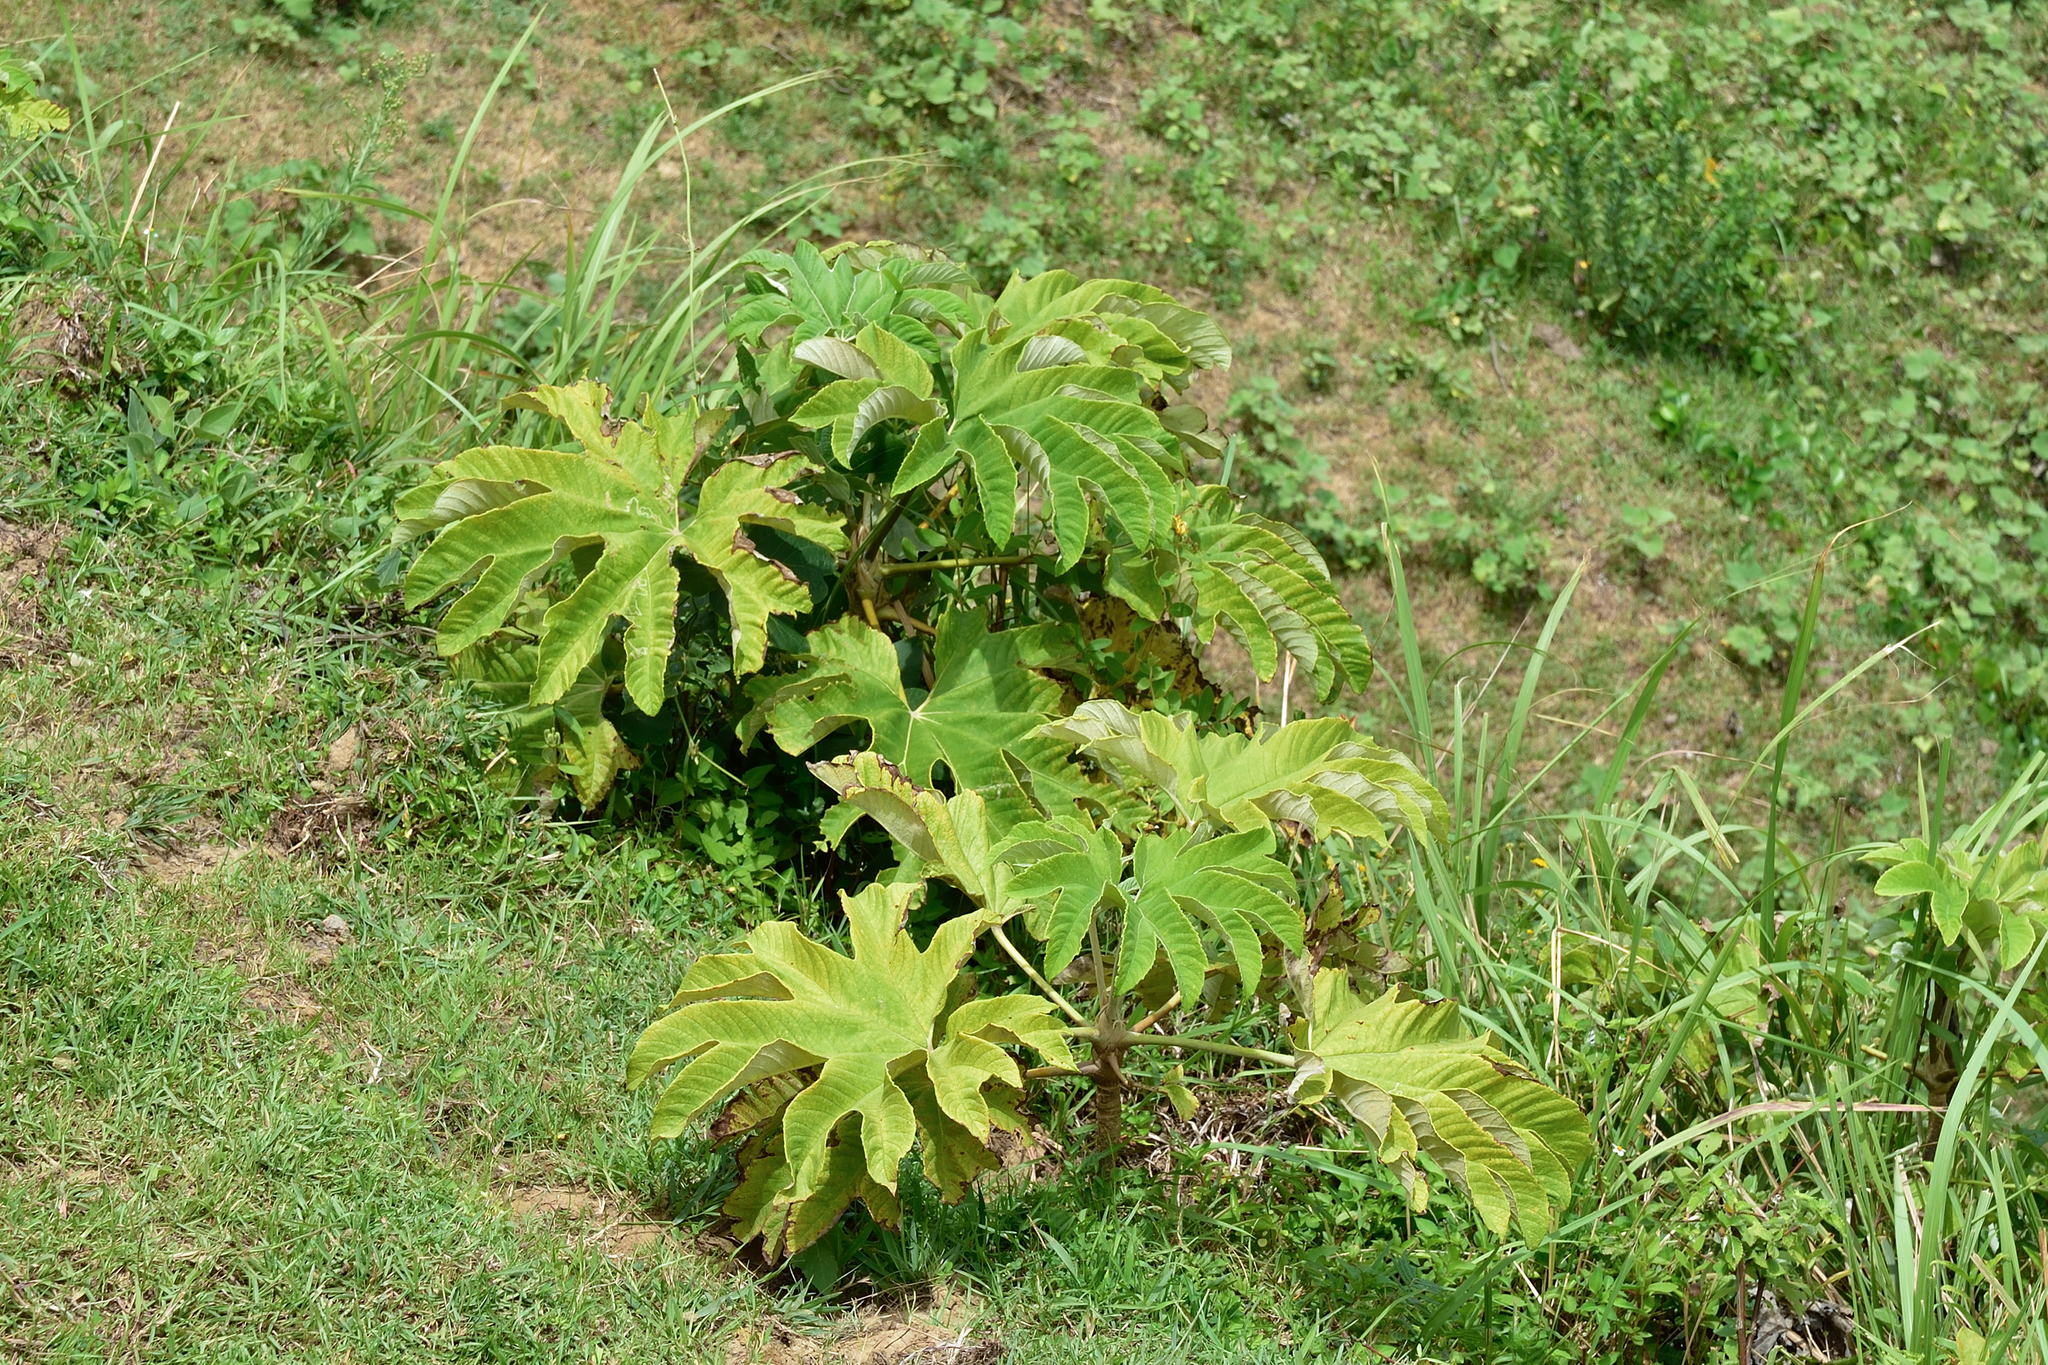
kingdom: Plantae
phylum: Tracheophyta
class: Magnoliopsida
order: Apiales
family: Araliaceae
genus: Tetrapanax
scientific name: Tetrapanax papyrifer
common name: Rice-paper plant
